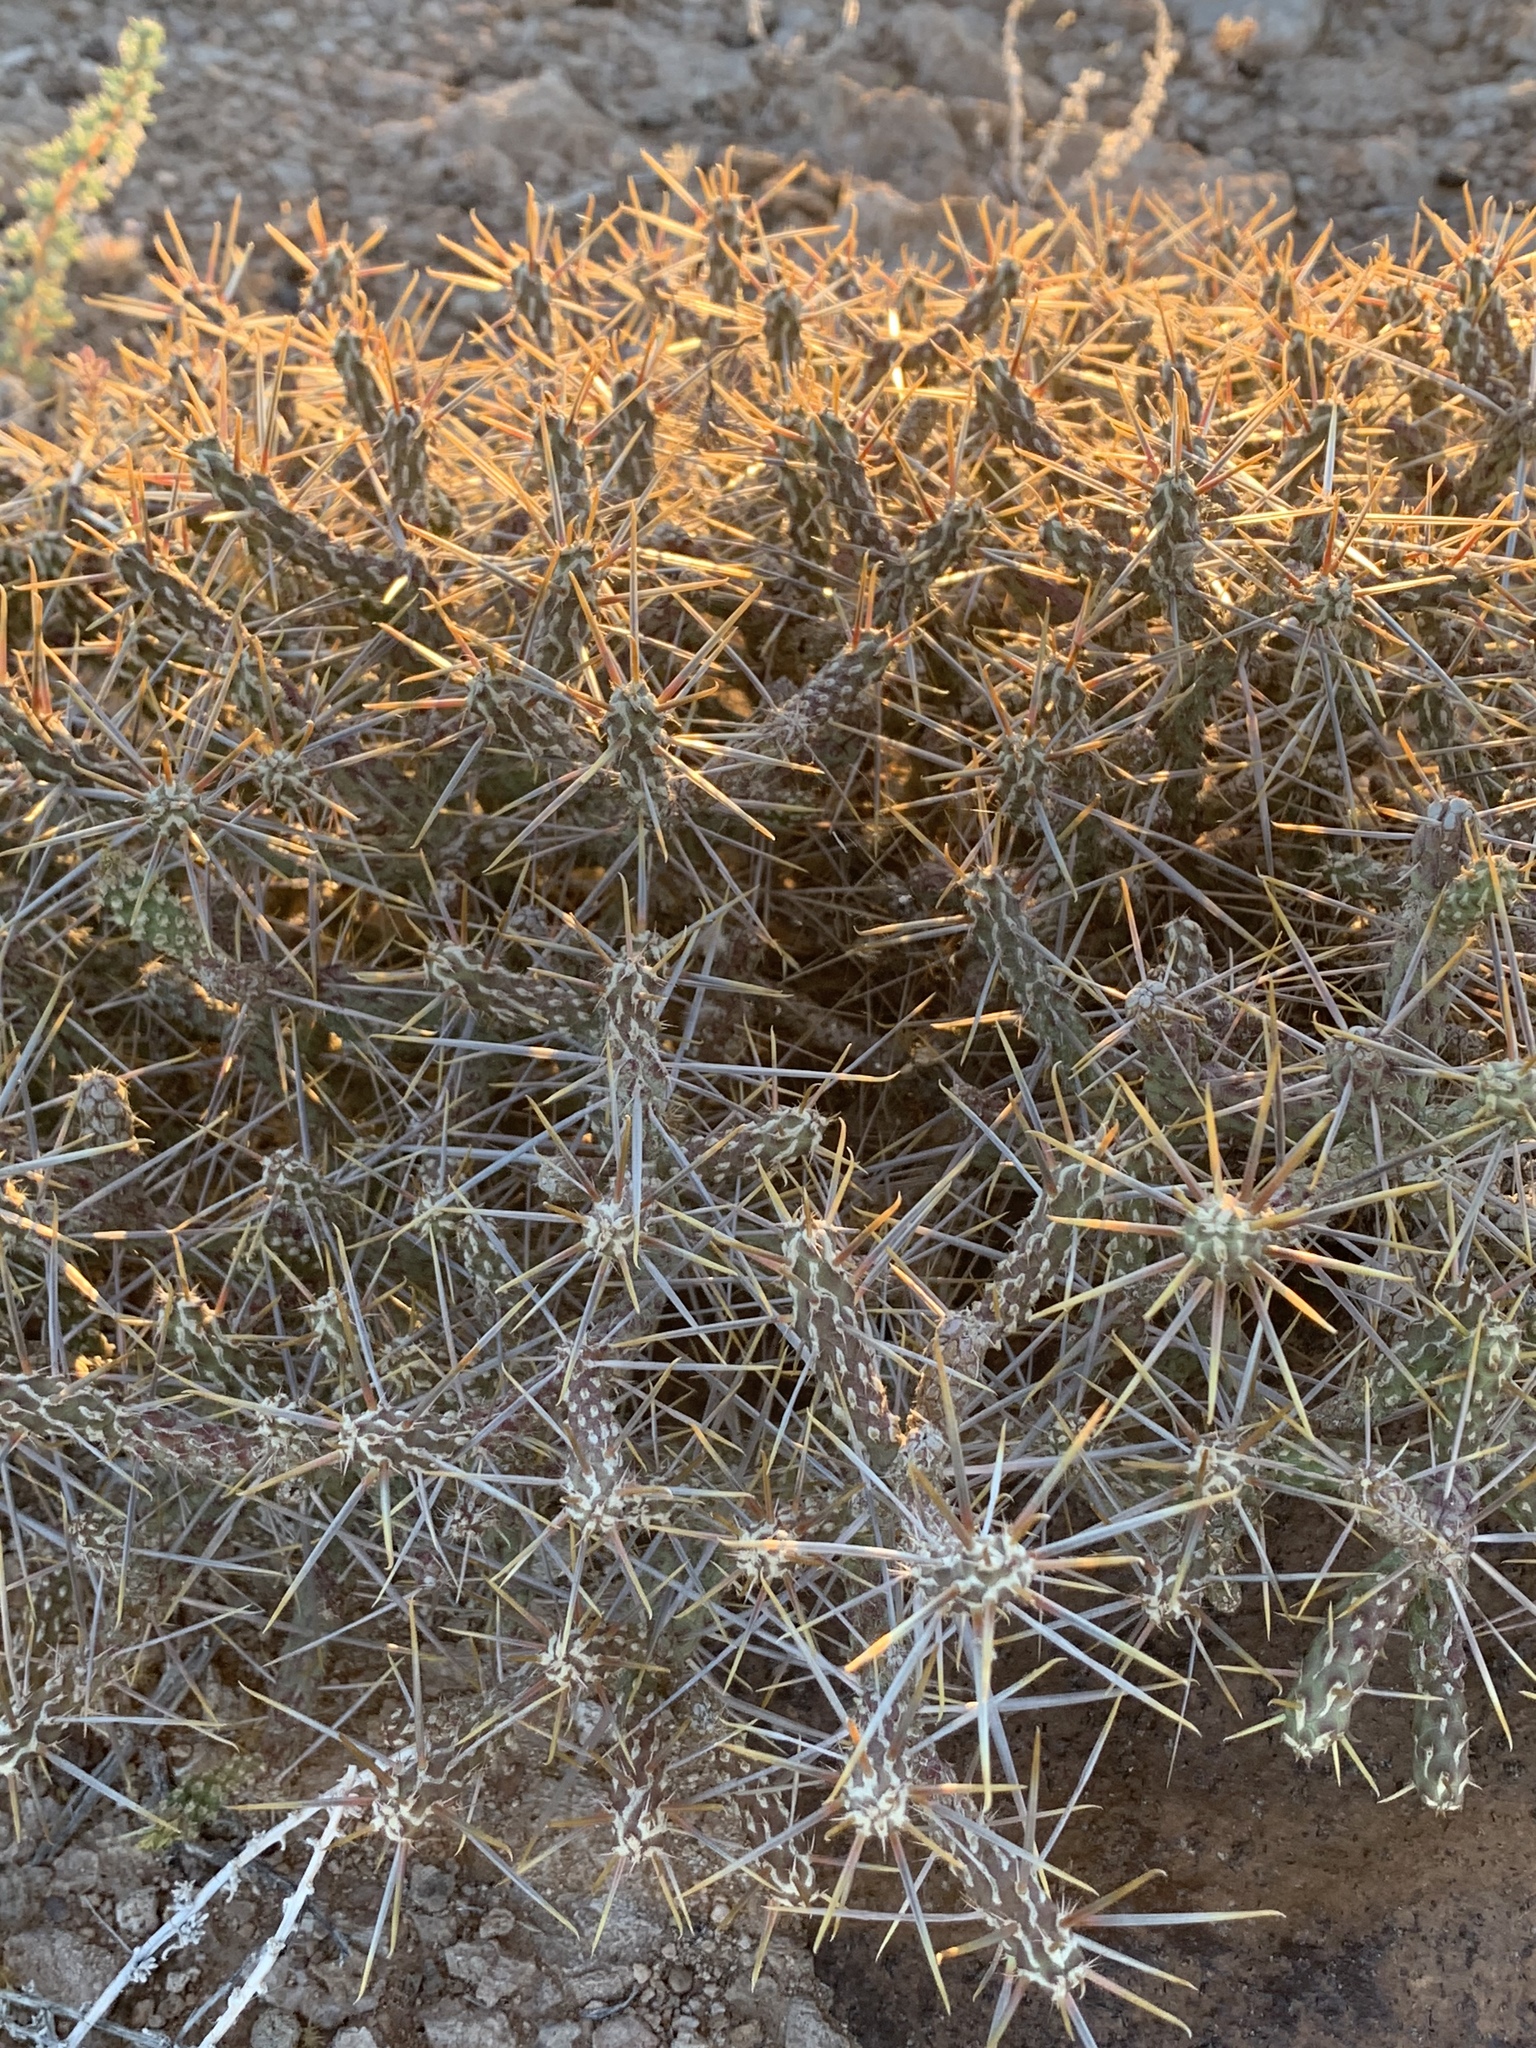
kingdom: Plantae
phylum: Tracheophyta
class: Magnoliopsida
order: Caryophyllales
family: Cactaceae
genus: Cylindropuntia
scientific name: Cylindropuntia ramosissima
